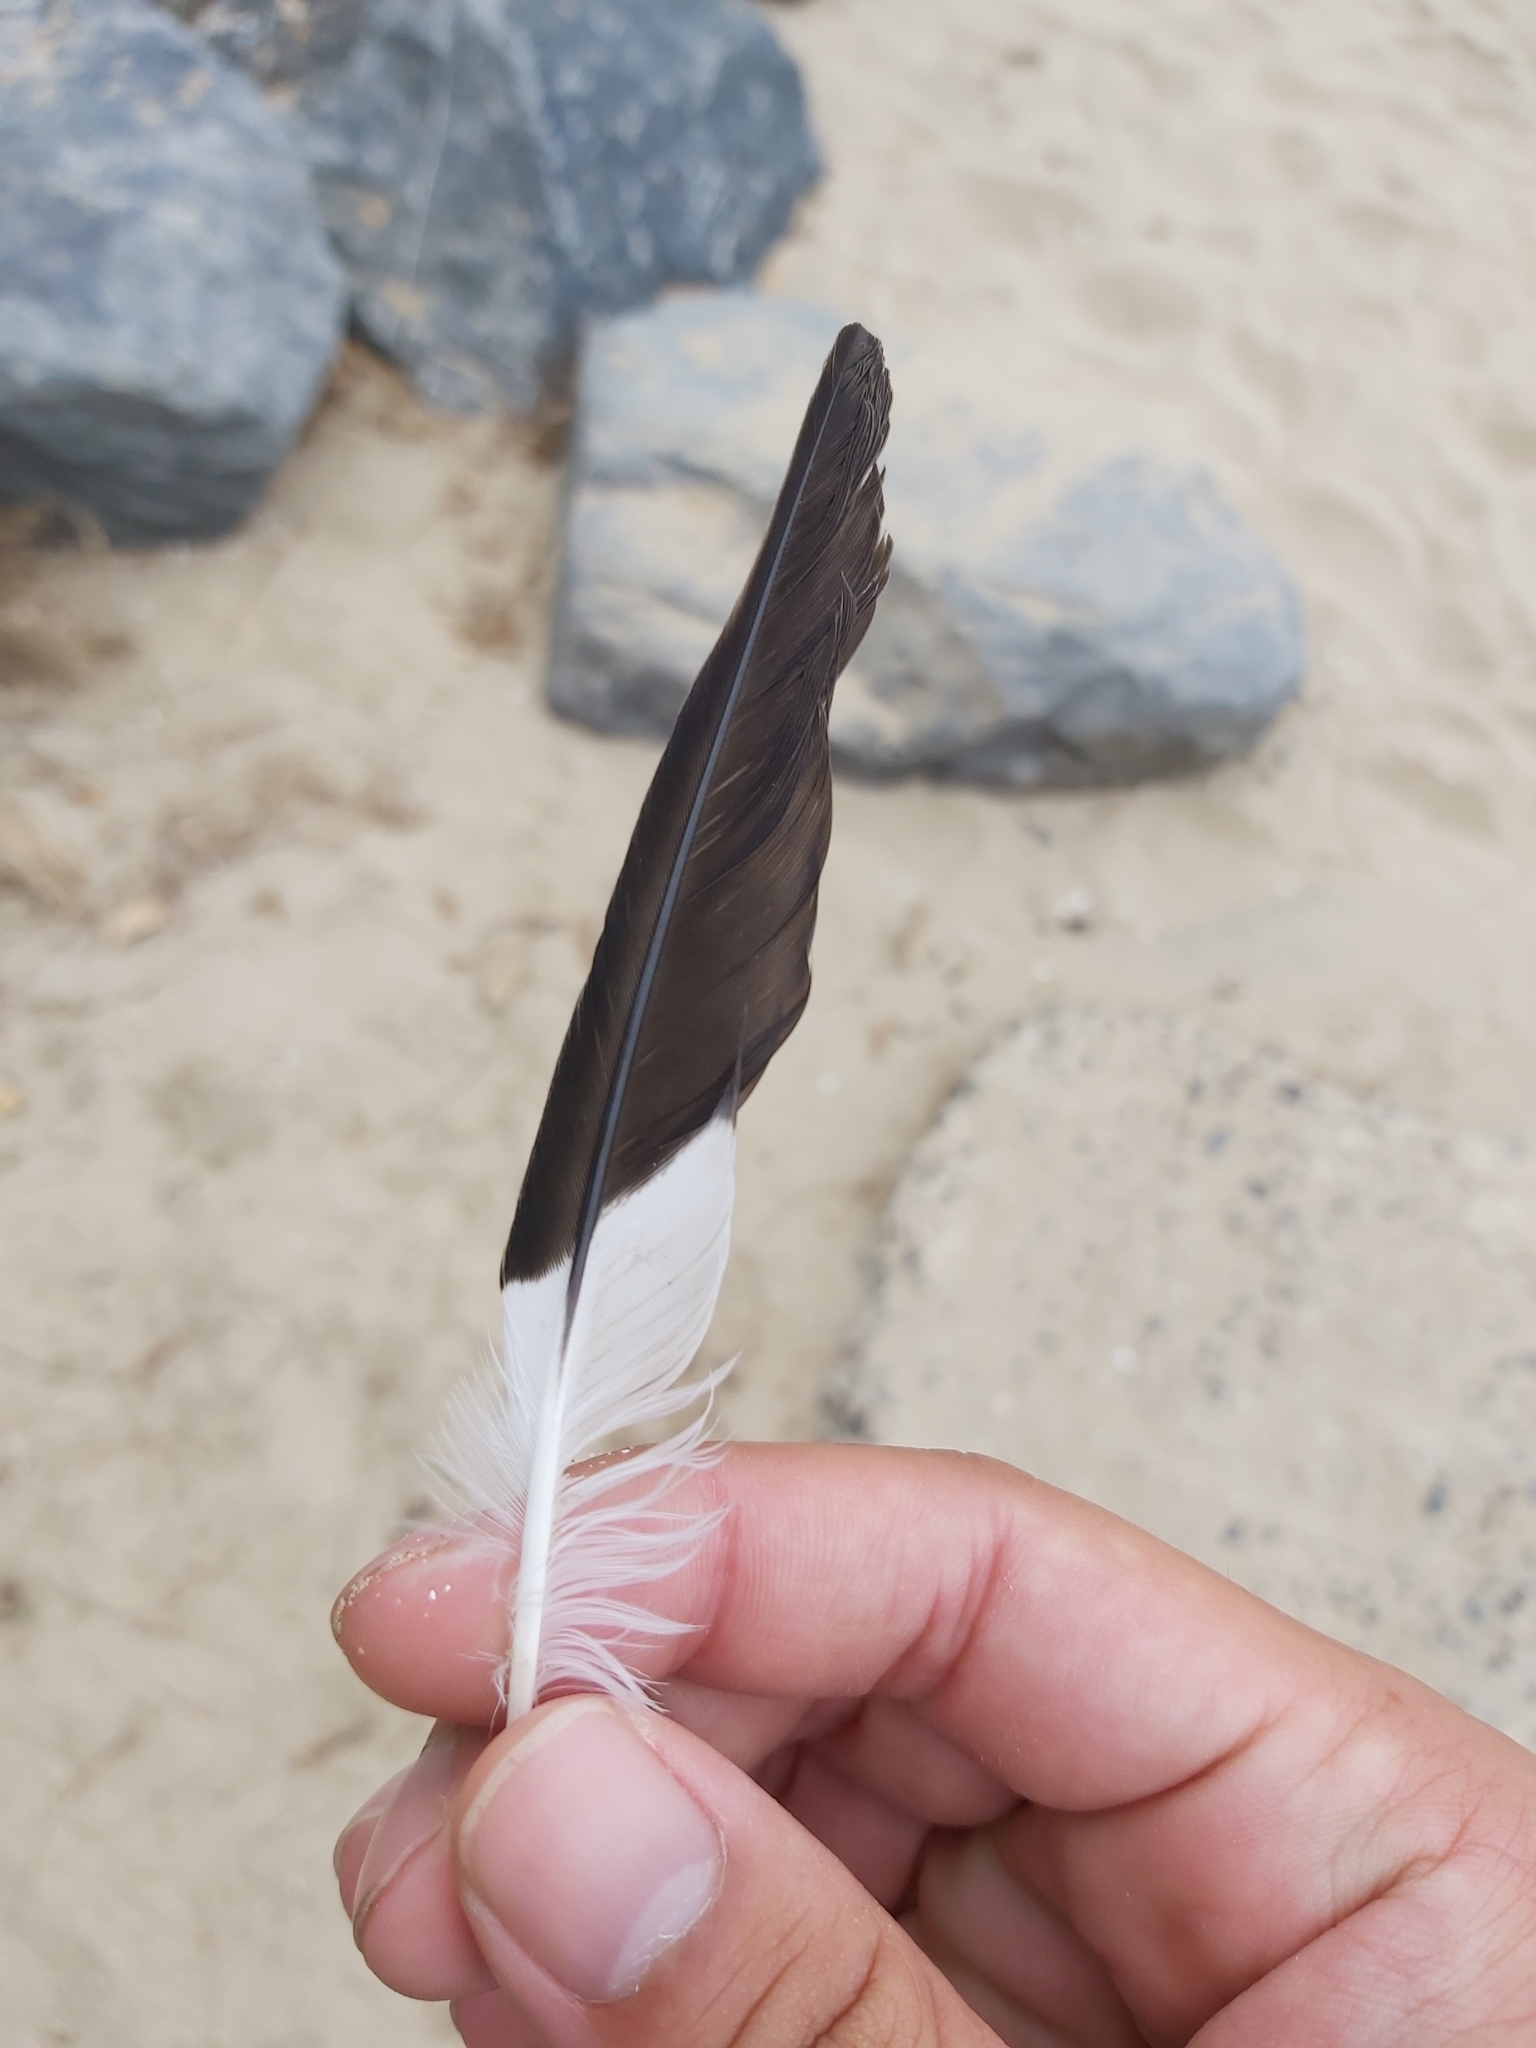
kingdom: Animalia
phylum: Chordata
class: Aves
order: Passeriformes
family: Sturnidae
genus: Acridotheres
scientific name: Acridotheres tristis
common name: Common myna
